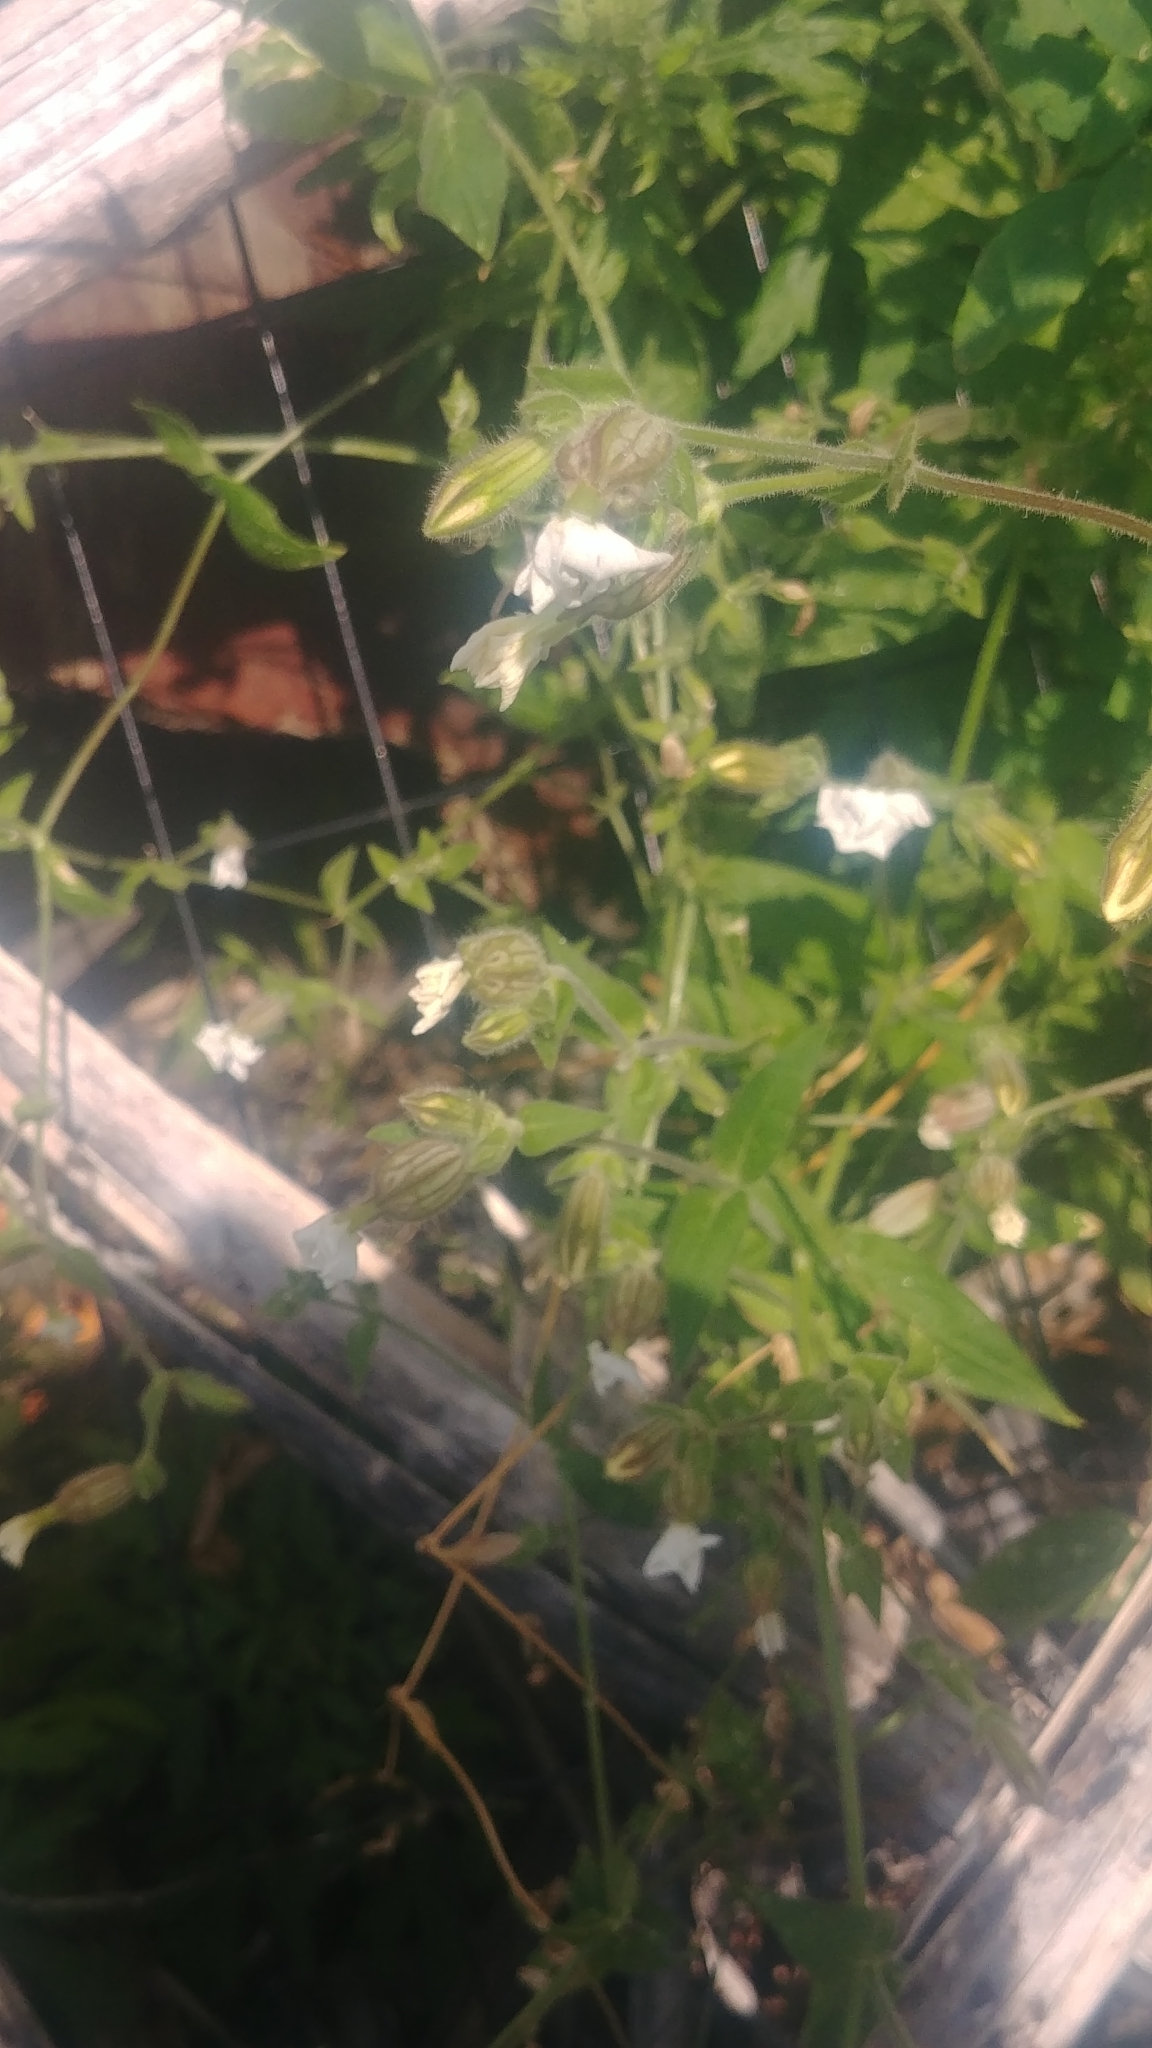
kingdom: Plantae
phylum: Tracheophyta
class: Magnoliopsida
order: Caryophyllales
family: Caryophyllaceae
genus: Silene
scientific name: Silene latifolia
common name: White campion
